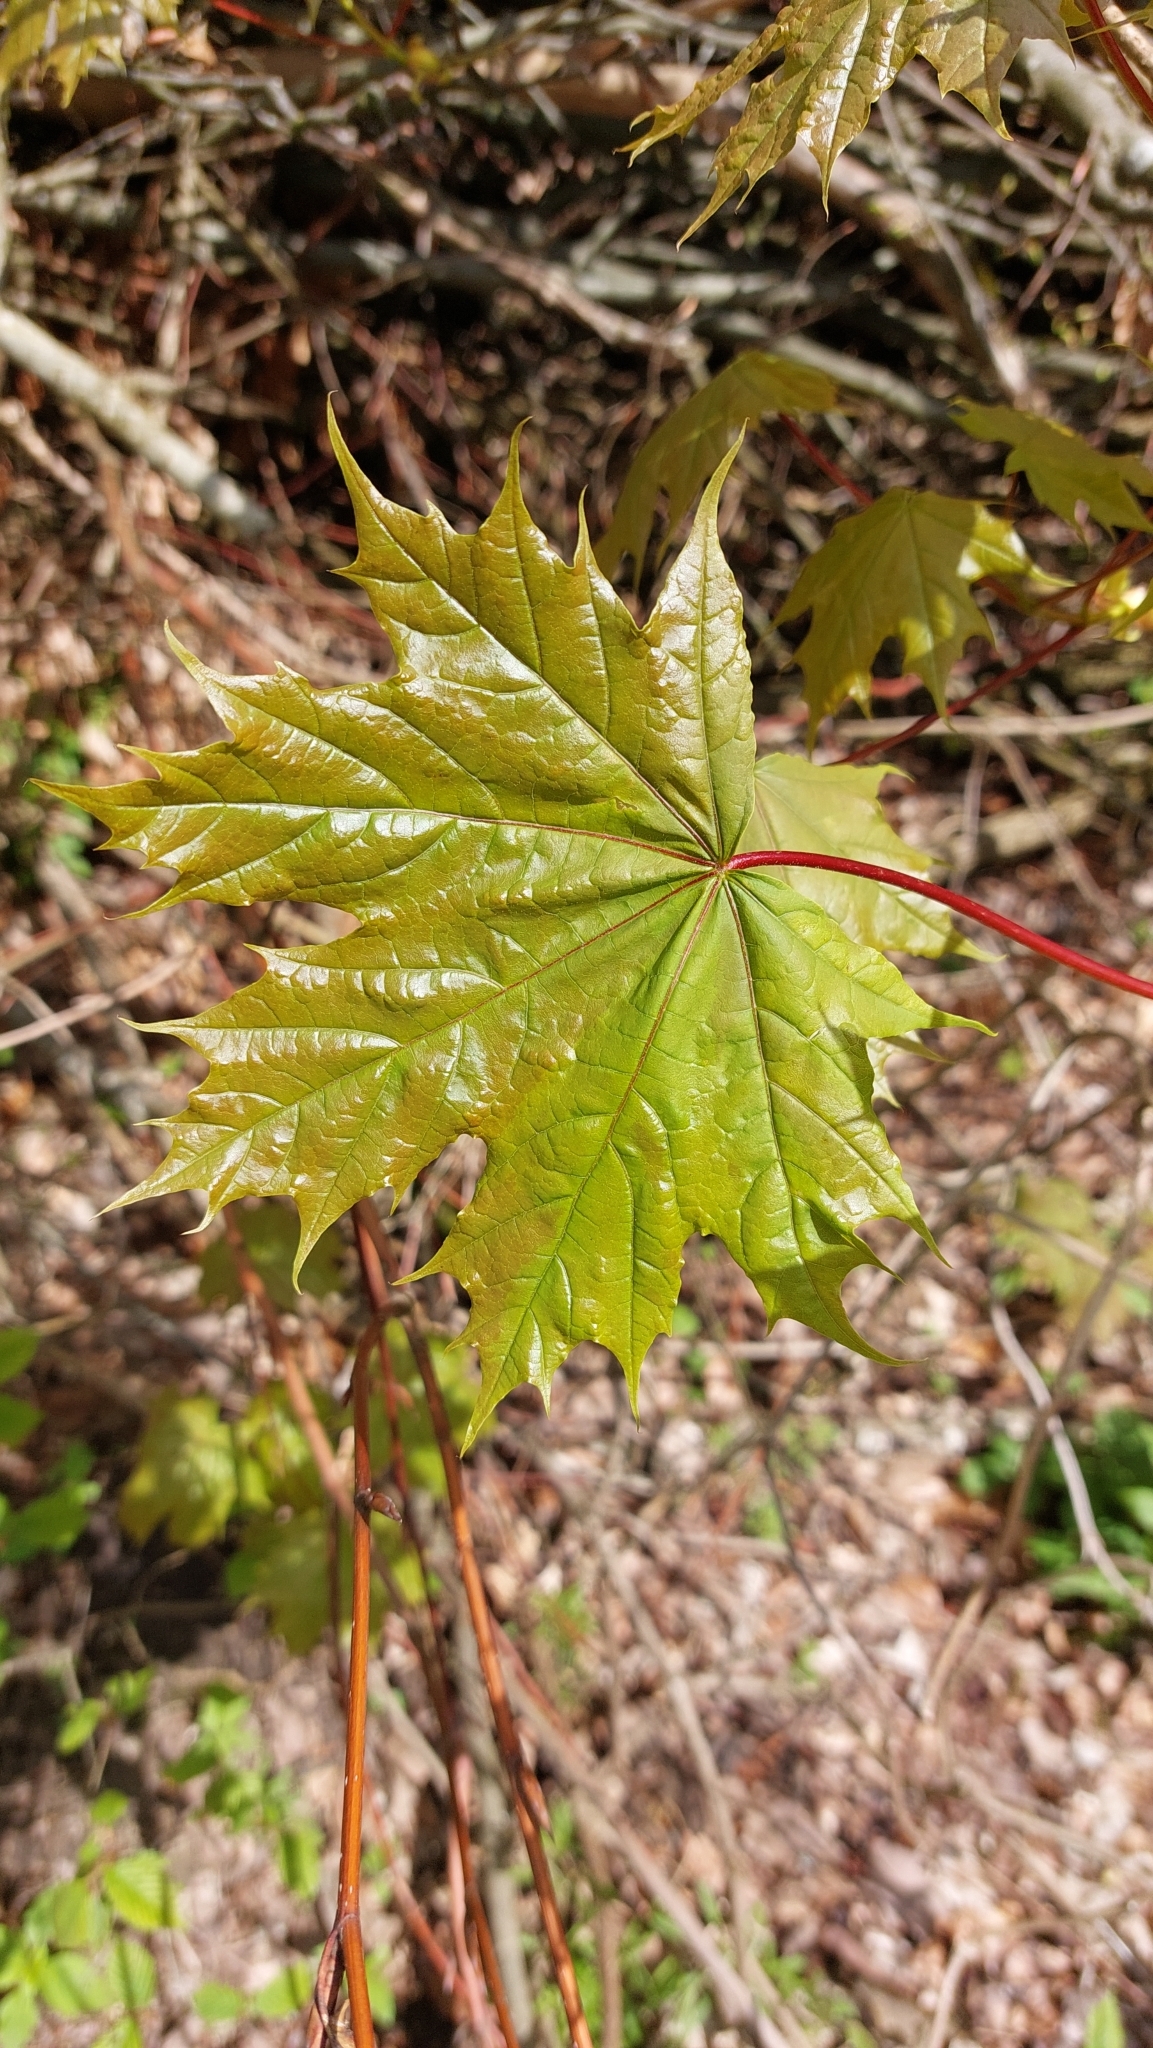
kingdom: Plantae
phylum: Tracheophyta
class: Magnoliopsida
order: Sapindales
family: Sapindaceae
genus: Acer
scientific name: Acer platanoides
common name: Norway maple
